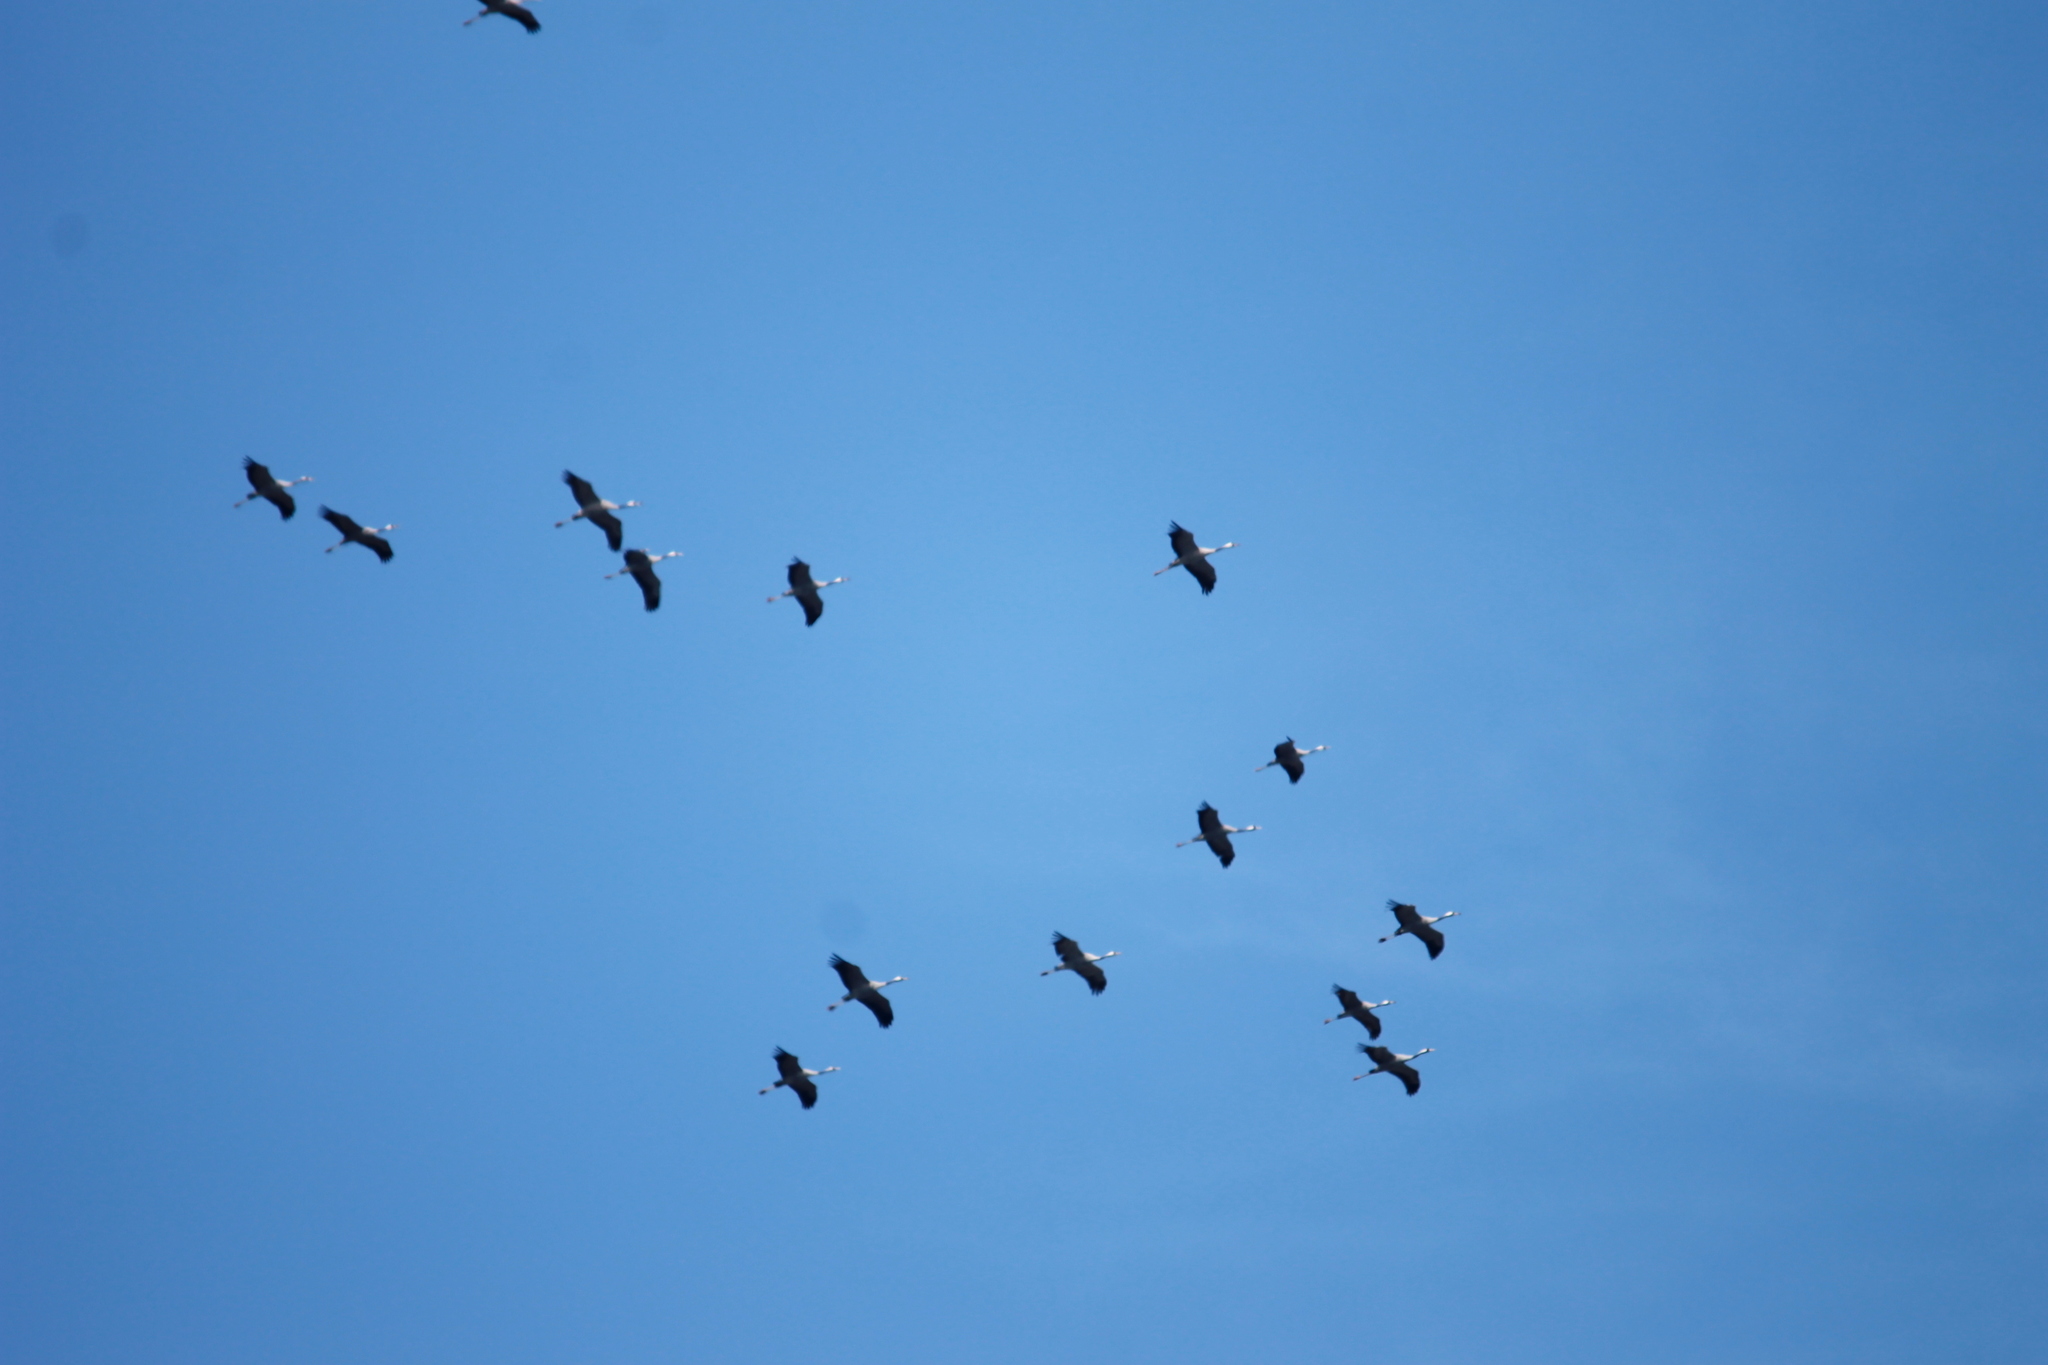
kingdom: Animalia
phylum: Chordata
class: Aves
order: Gruiformes
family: Gruidae
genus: Grus
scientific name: Grus grus
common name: Common crane
